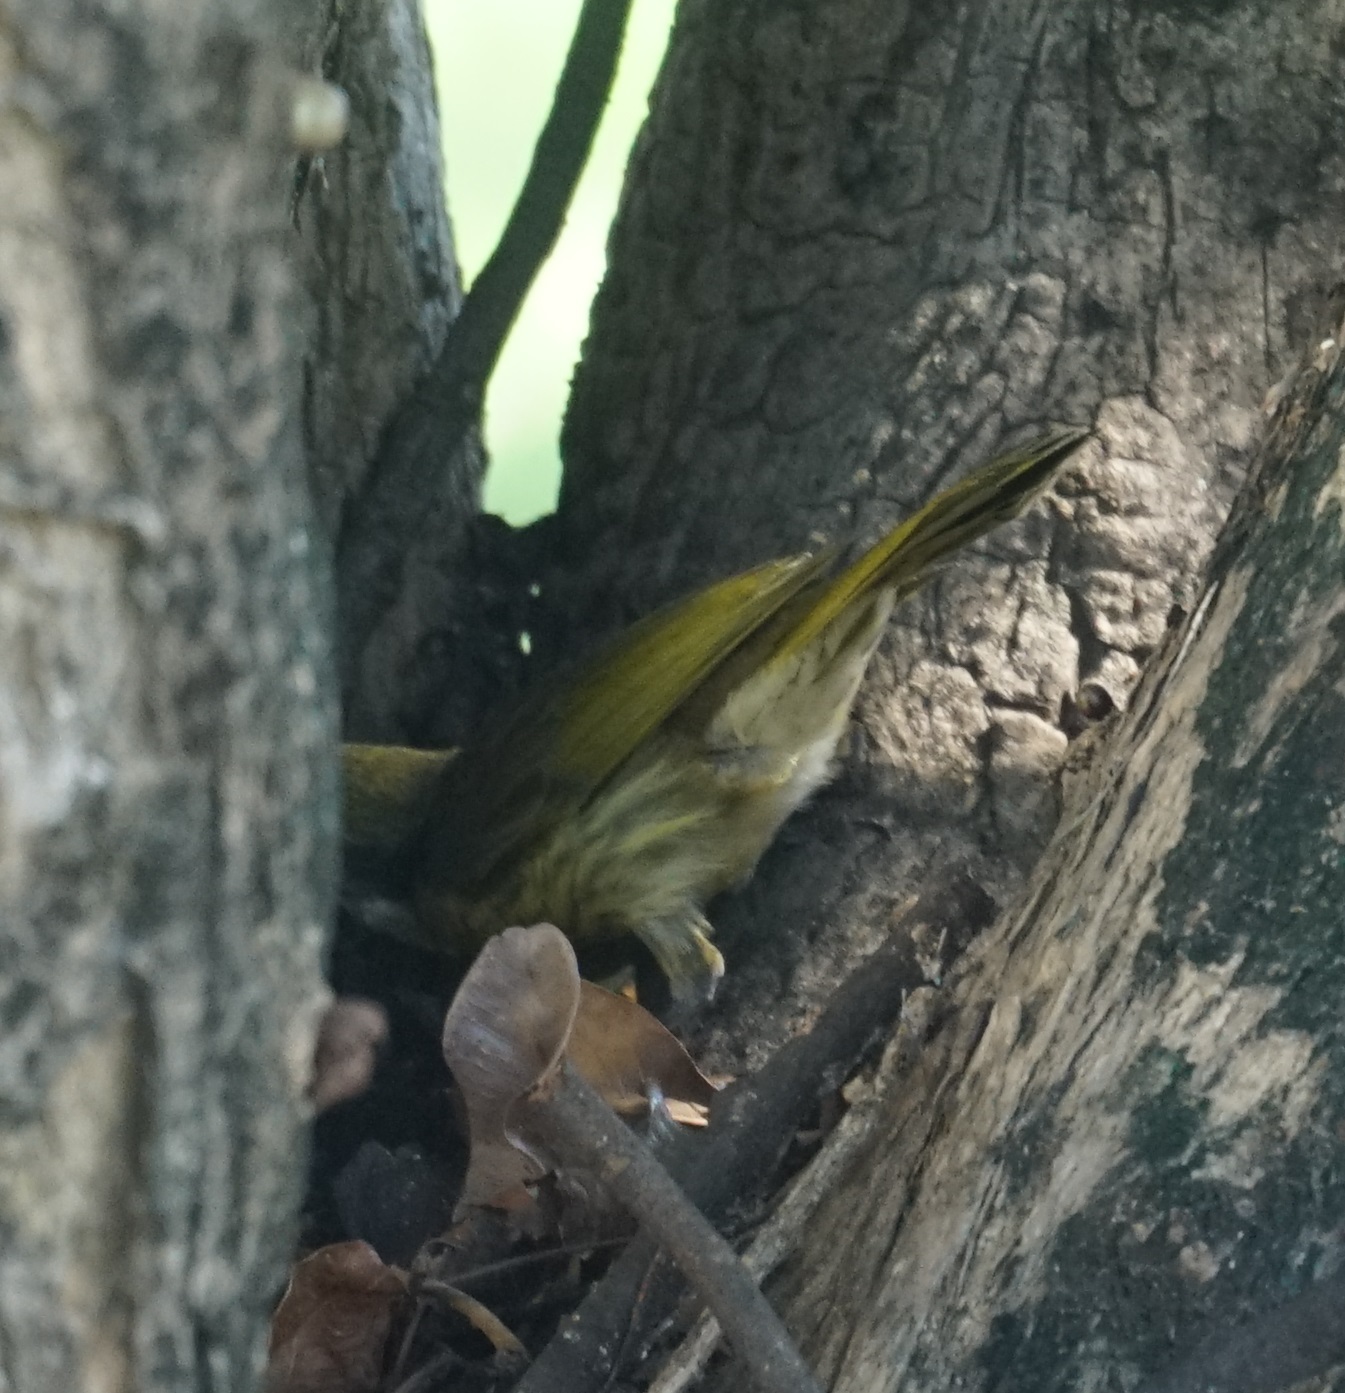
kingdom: Animalia
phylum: Chordata
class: Aves
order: Passeriformes
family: Meliphagidae
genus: Gavicalis
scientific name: Gavicalis versicolor
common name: Varied honeyeater
